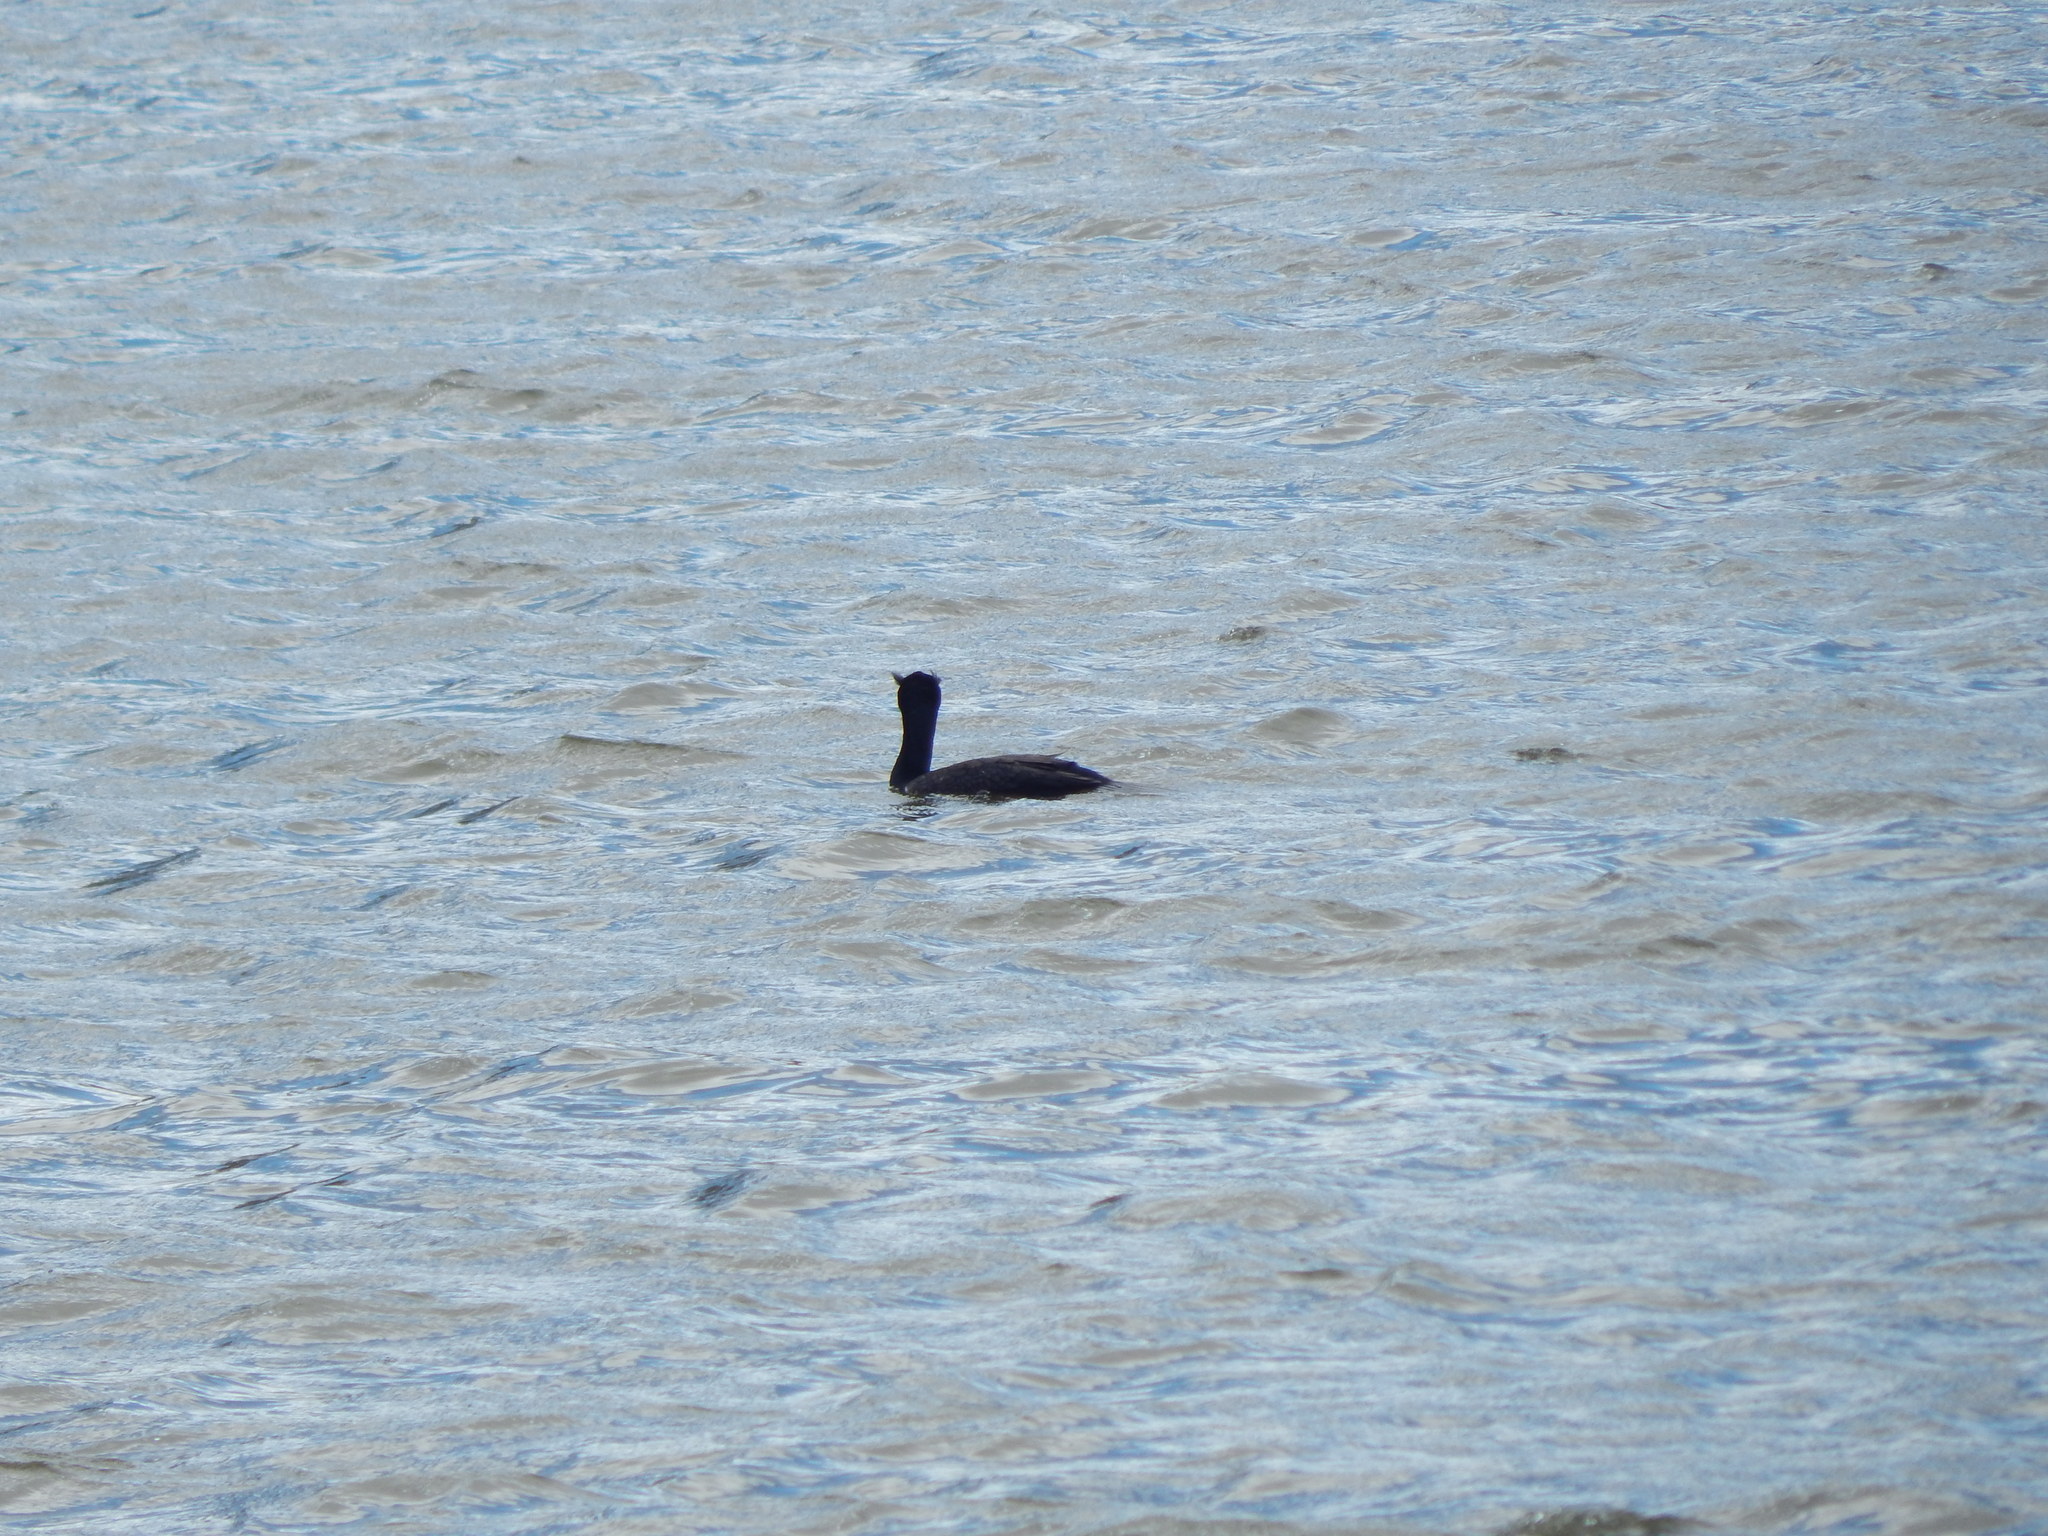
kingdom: Animalia
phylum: Chordata
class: Aves
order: Suliformes
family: Phalacrocoracidae
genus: Phalacrocorax
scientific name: Phalacrocorax auritus
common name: Double-crested cormorant
